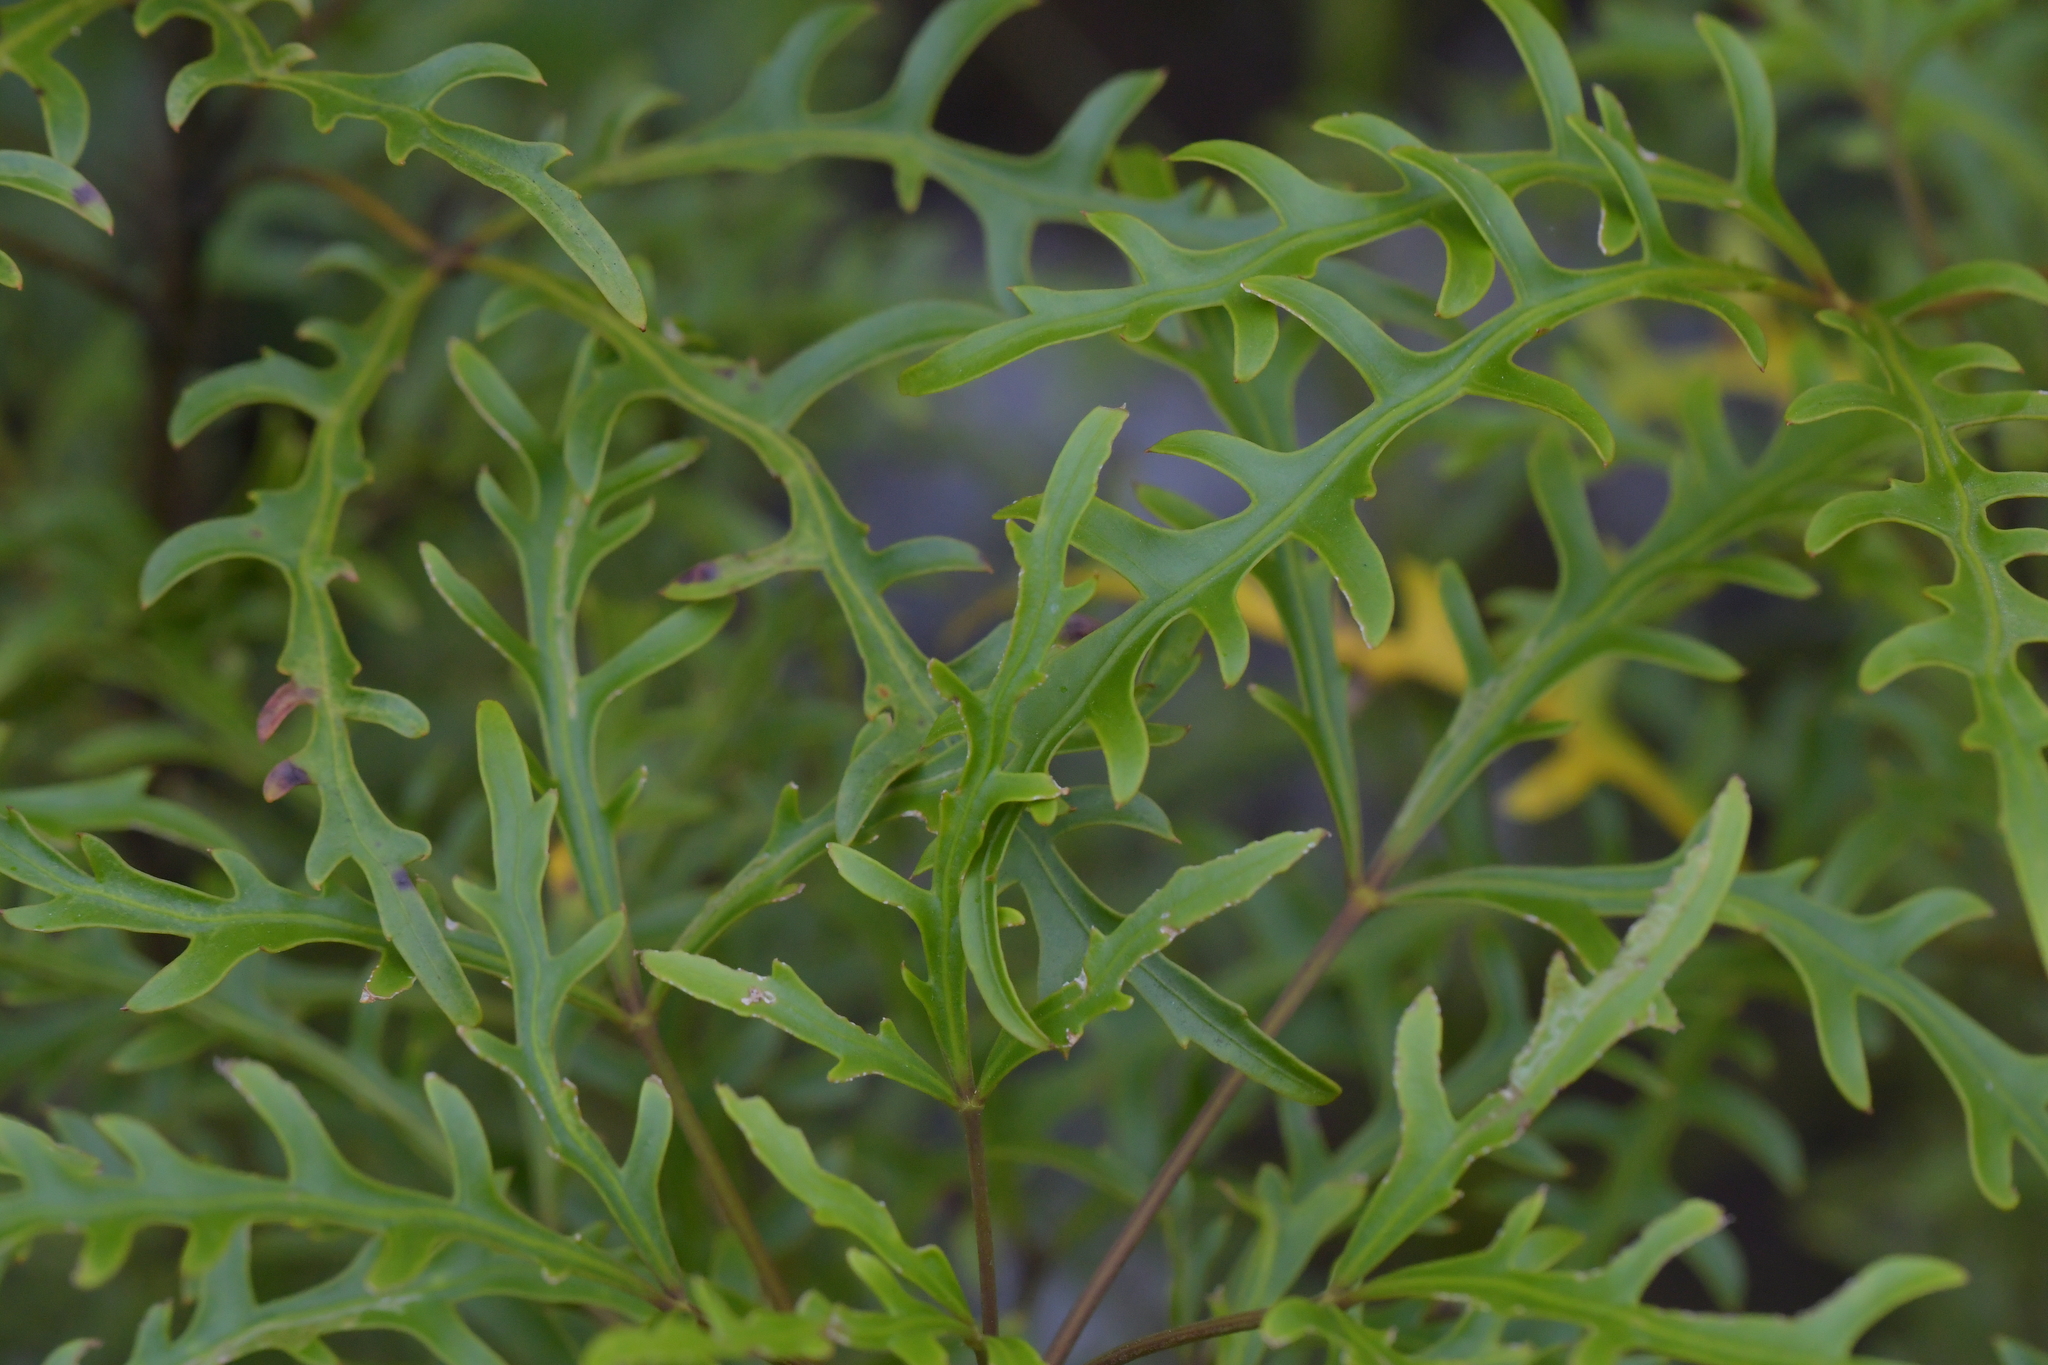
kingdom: Plantae
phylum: Tracheophyta
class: Magnoliopsida
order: Apiales
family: Araliaceae
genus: Raukaua
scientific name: Raukaua simplex
